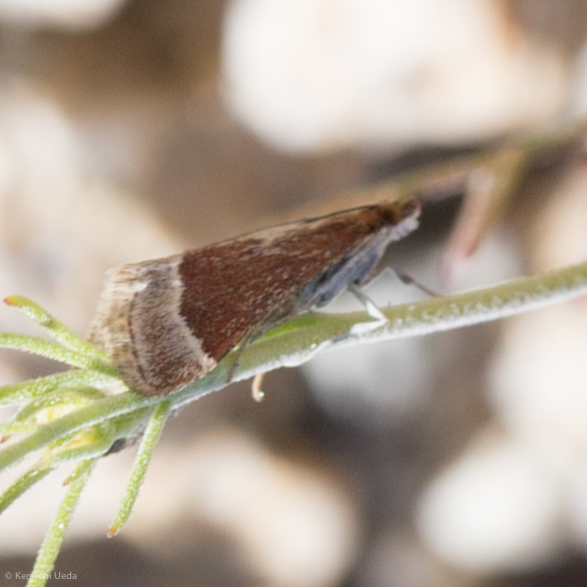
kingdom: Animalia
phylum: Arthropoda
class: Insecta
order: Lepidoptera
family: Crambidae
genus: Pyrausta
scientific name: Pyrausta lethalis
